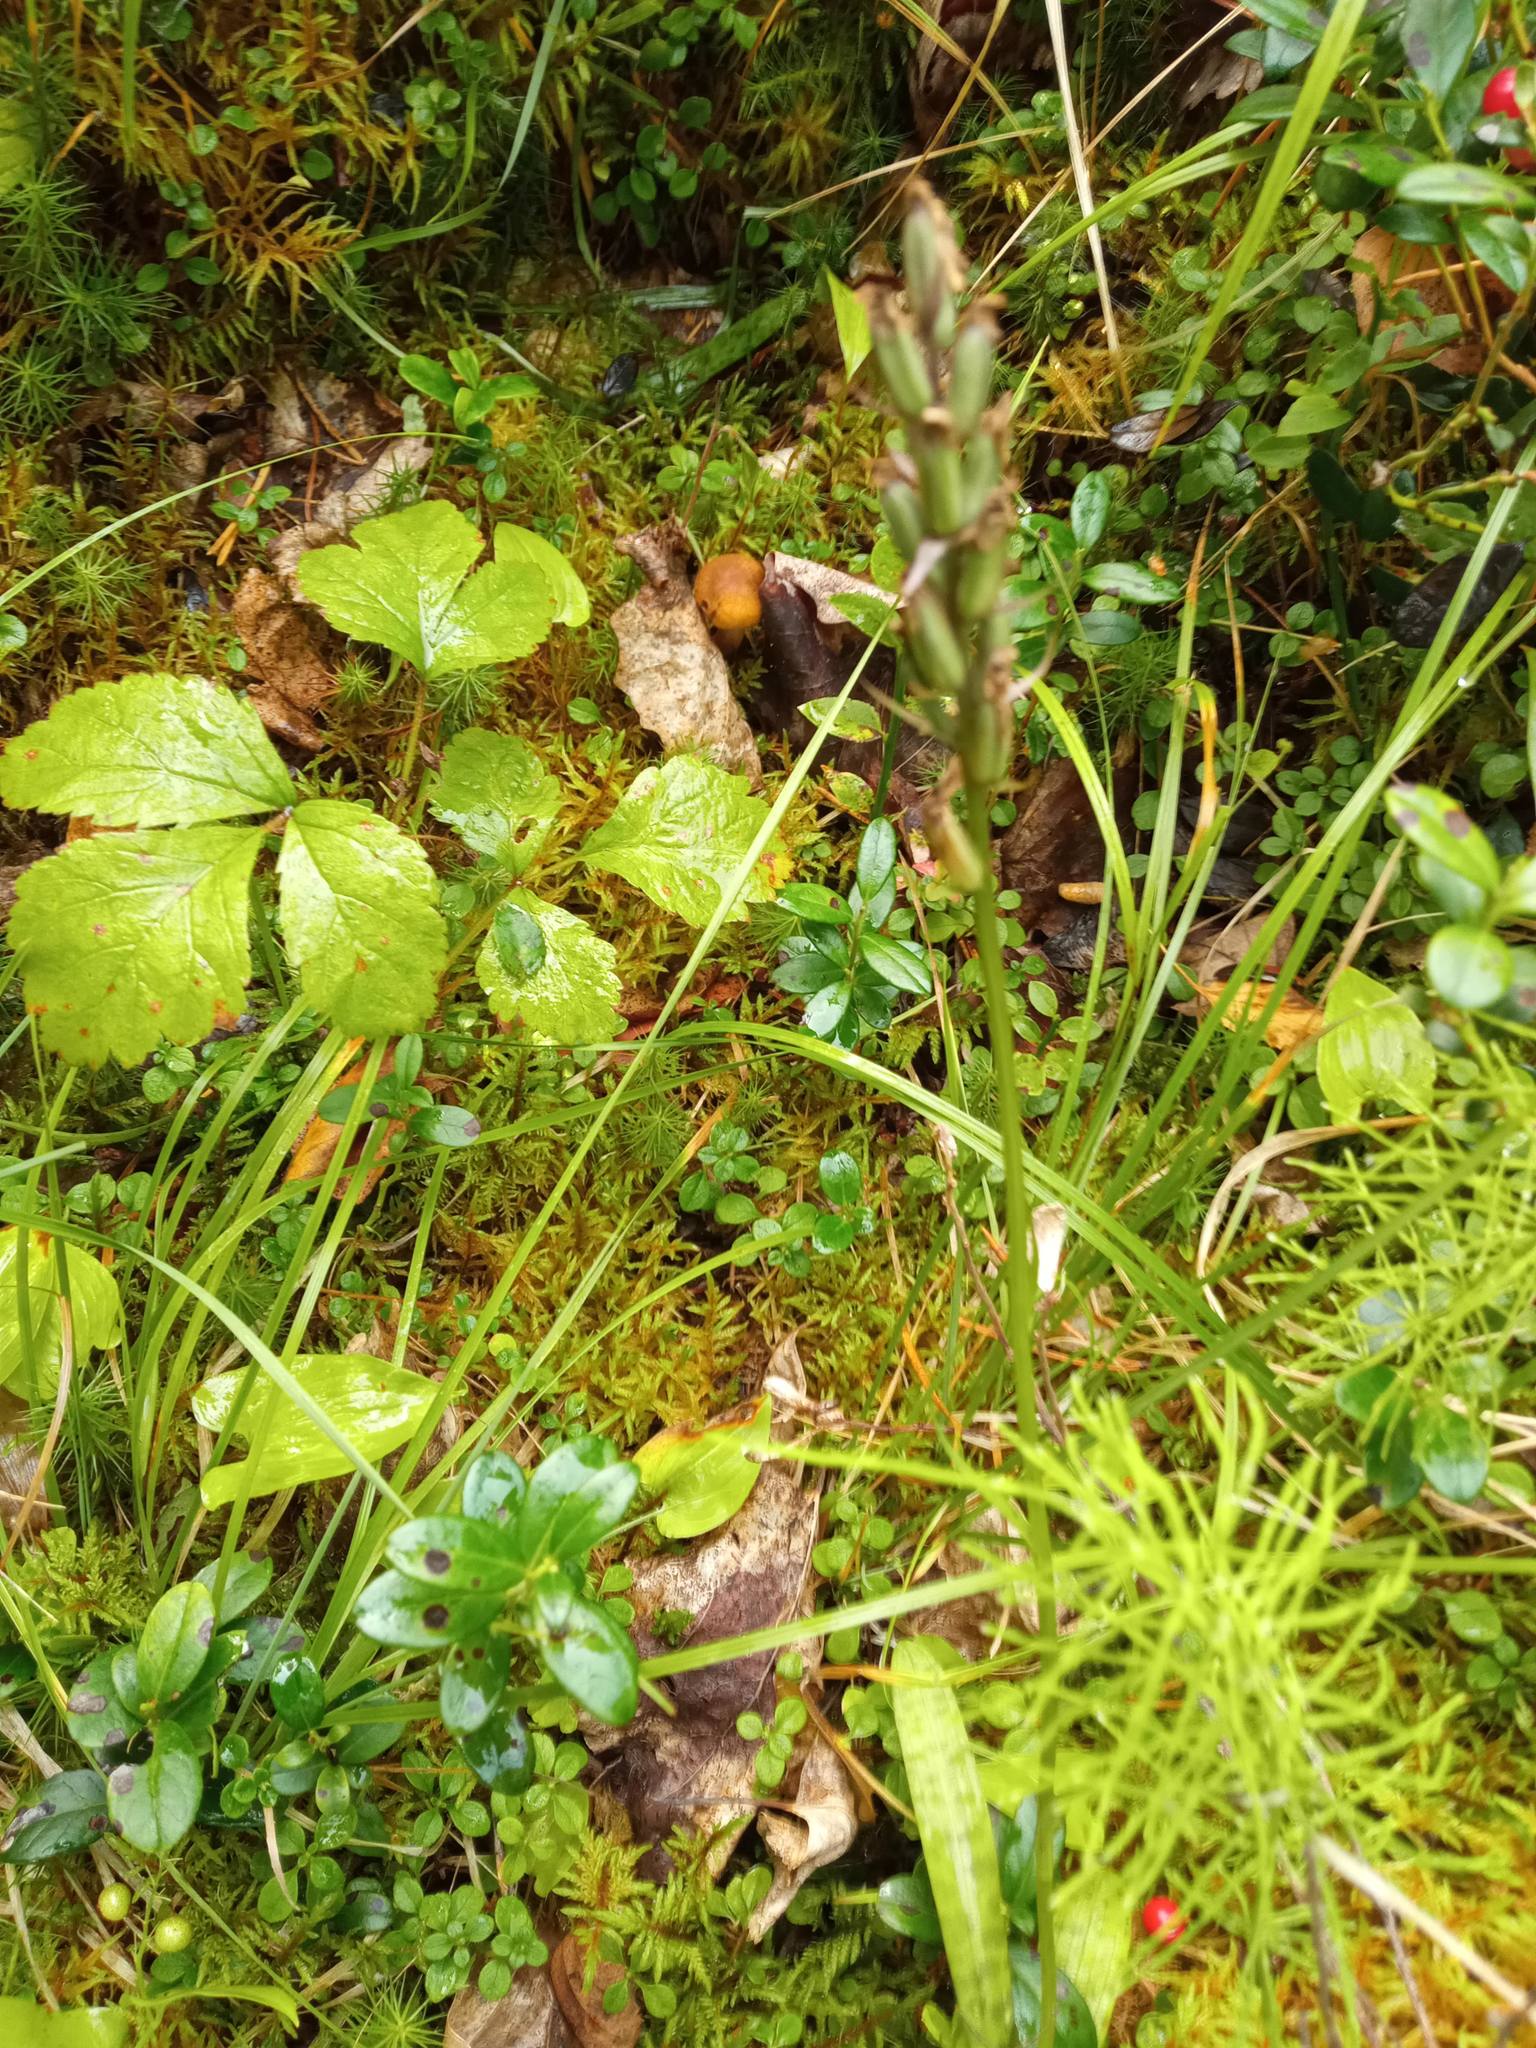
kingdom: Plantae
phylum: Tracheophyta
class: Liliopsida
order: Asparagales
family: Orchidaceae
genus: Dactylorhiza
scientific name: Dactylorhiza maculata
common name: Heath spotted-orchid
